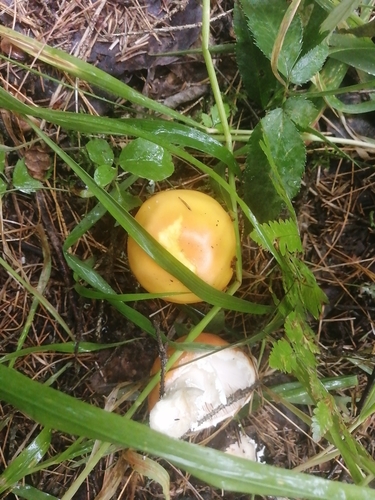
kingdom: Fungi
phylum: Basidiomycota
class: Agaricomycetes
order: Agaricales
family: Amanitaceae
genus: Amanita
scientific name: Amanita muscaria
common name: Fly agaric
